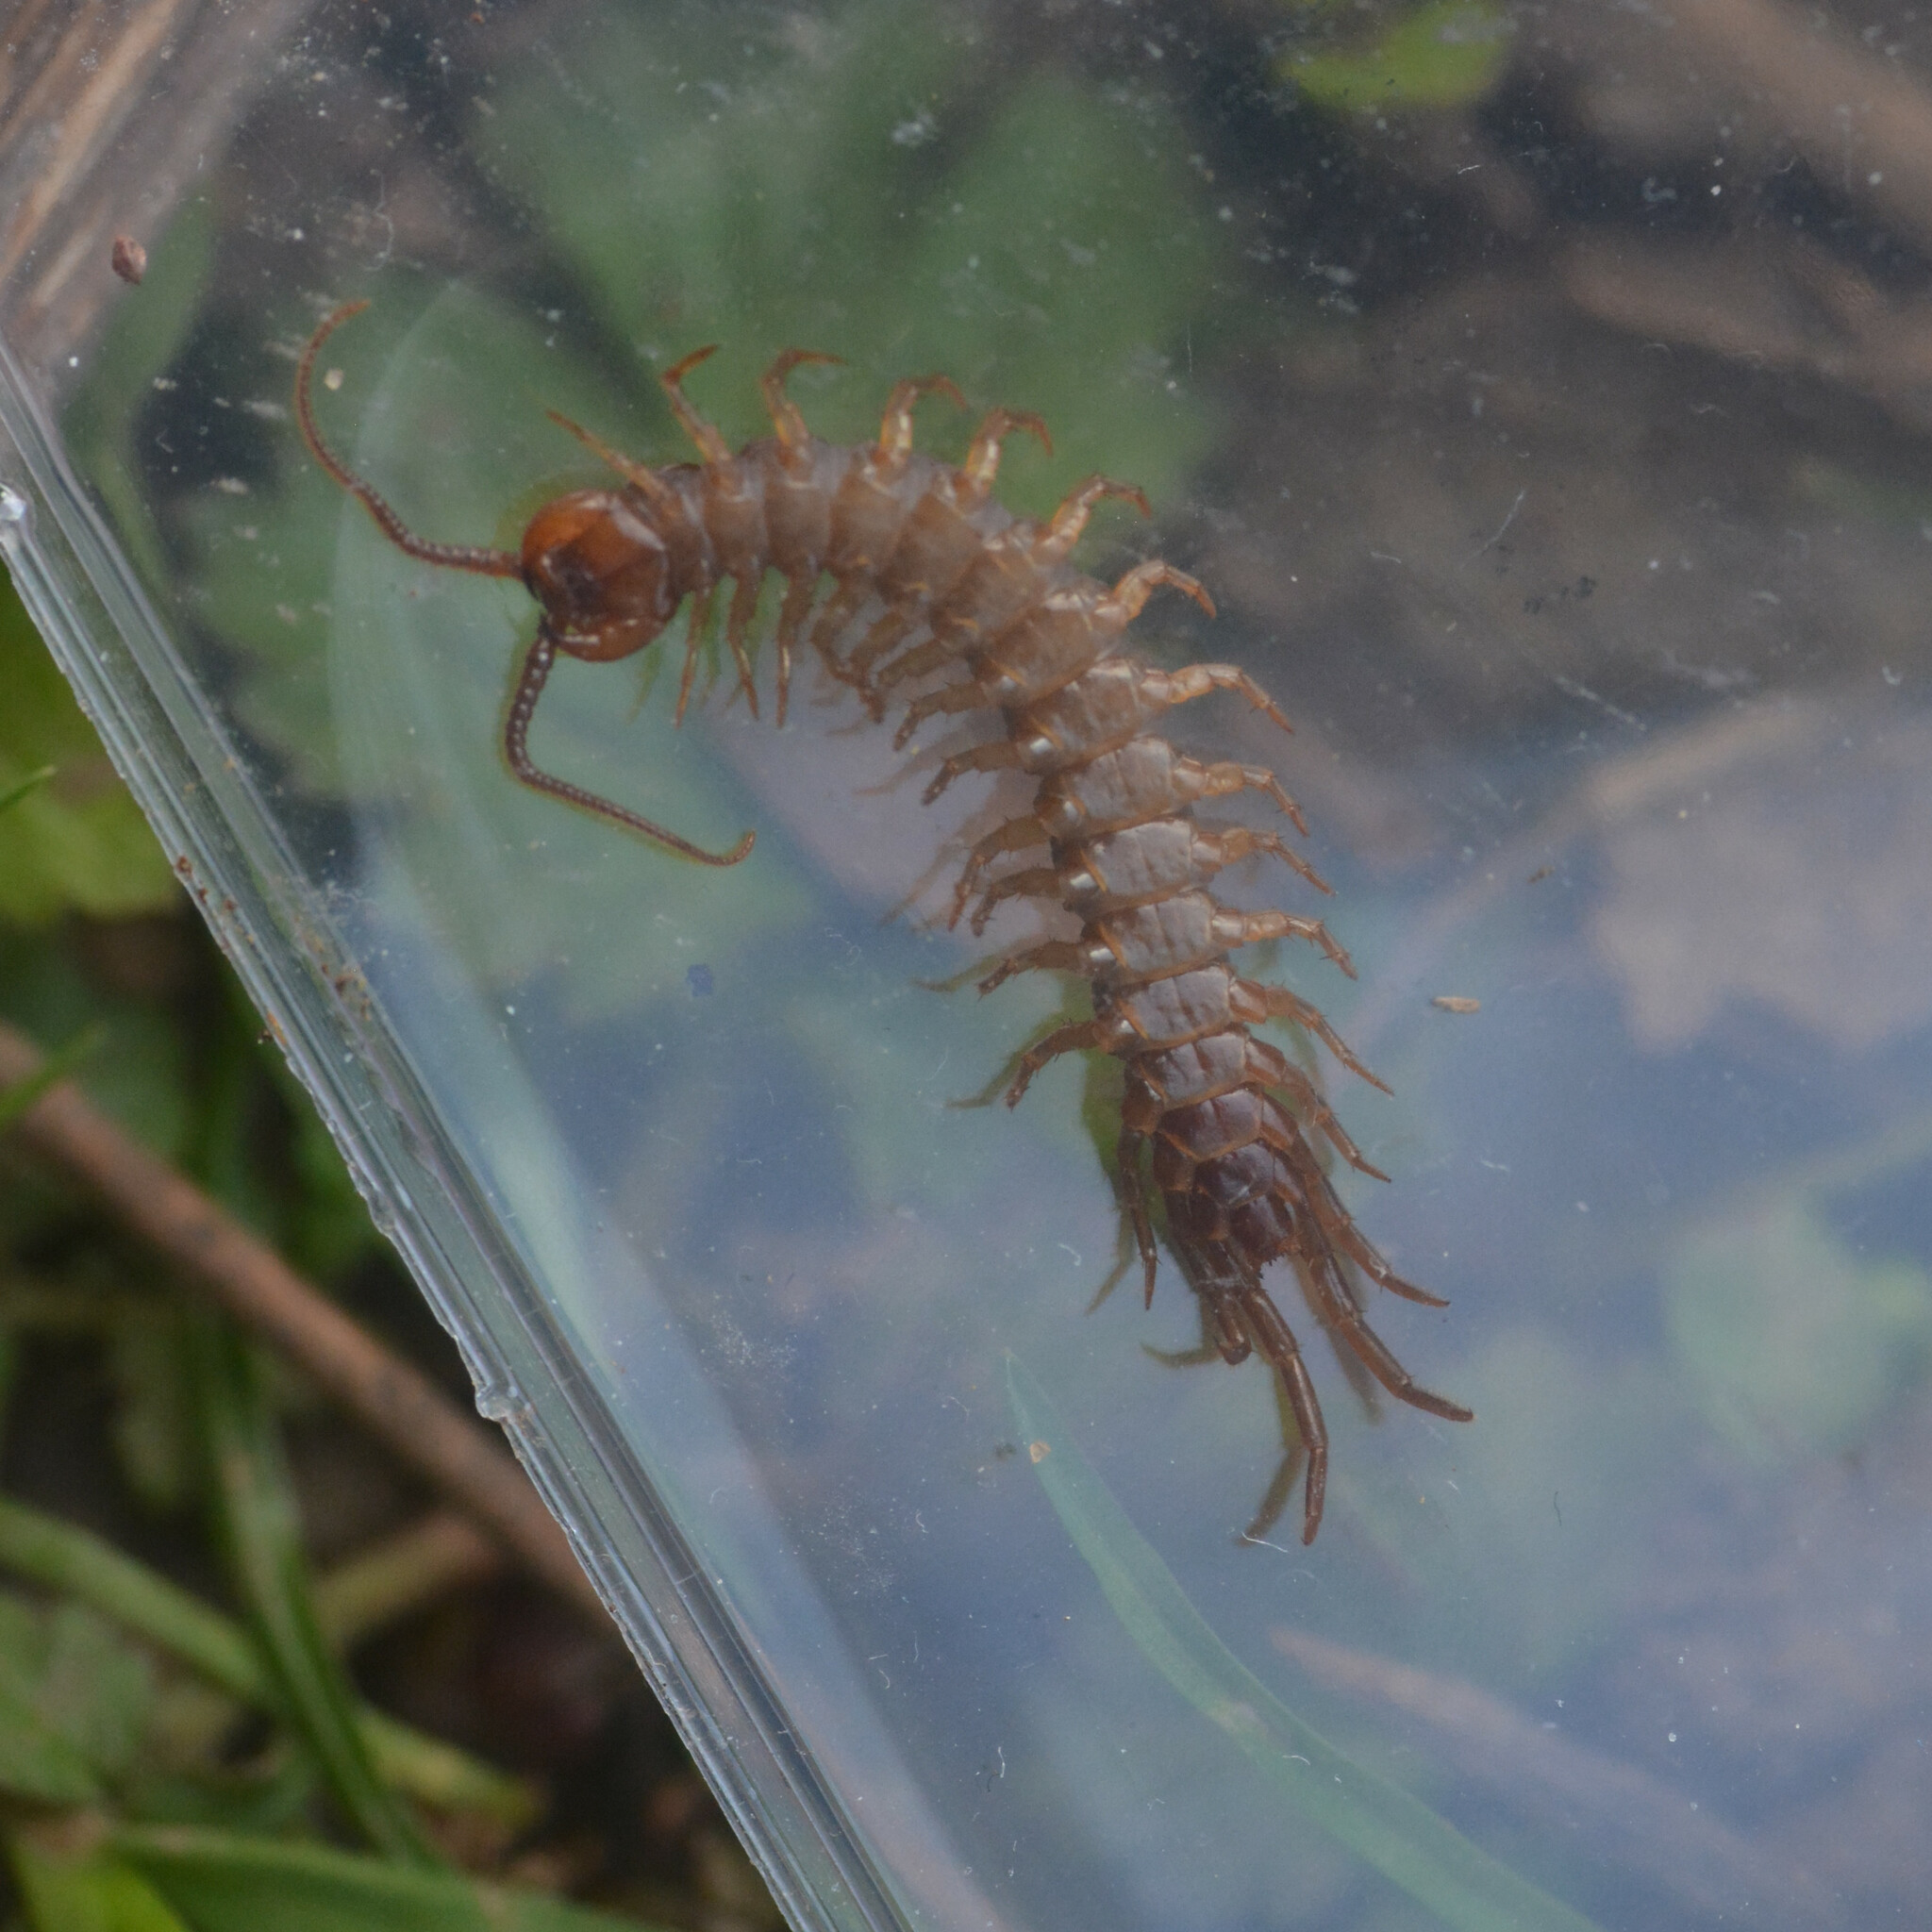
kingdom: Animalia
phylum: Arthropoda
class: Chilopoda
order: Lithobiomorpha
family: Lithobiidae
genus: Lithobius
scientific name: Lithobius forficatus
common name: Centipede
